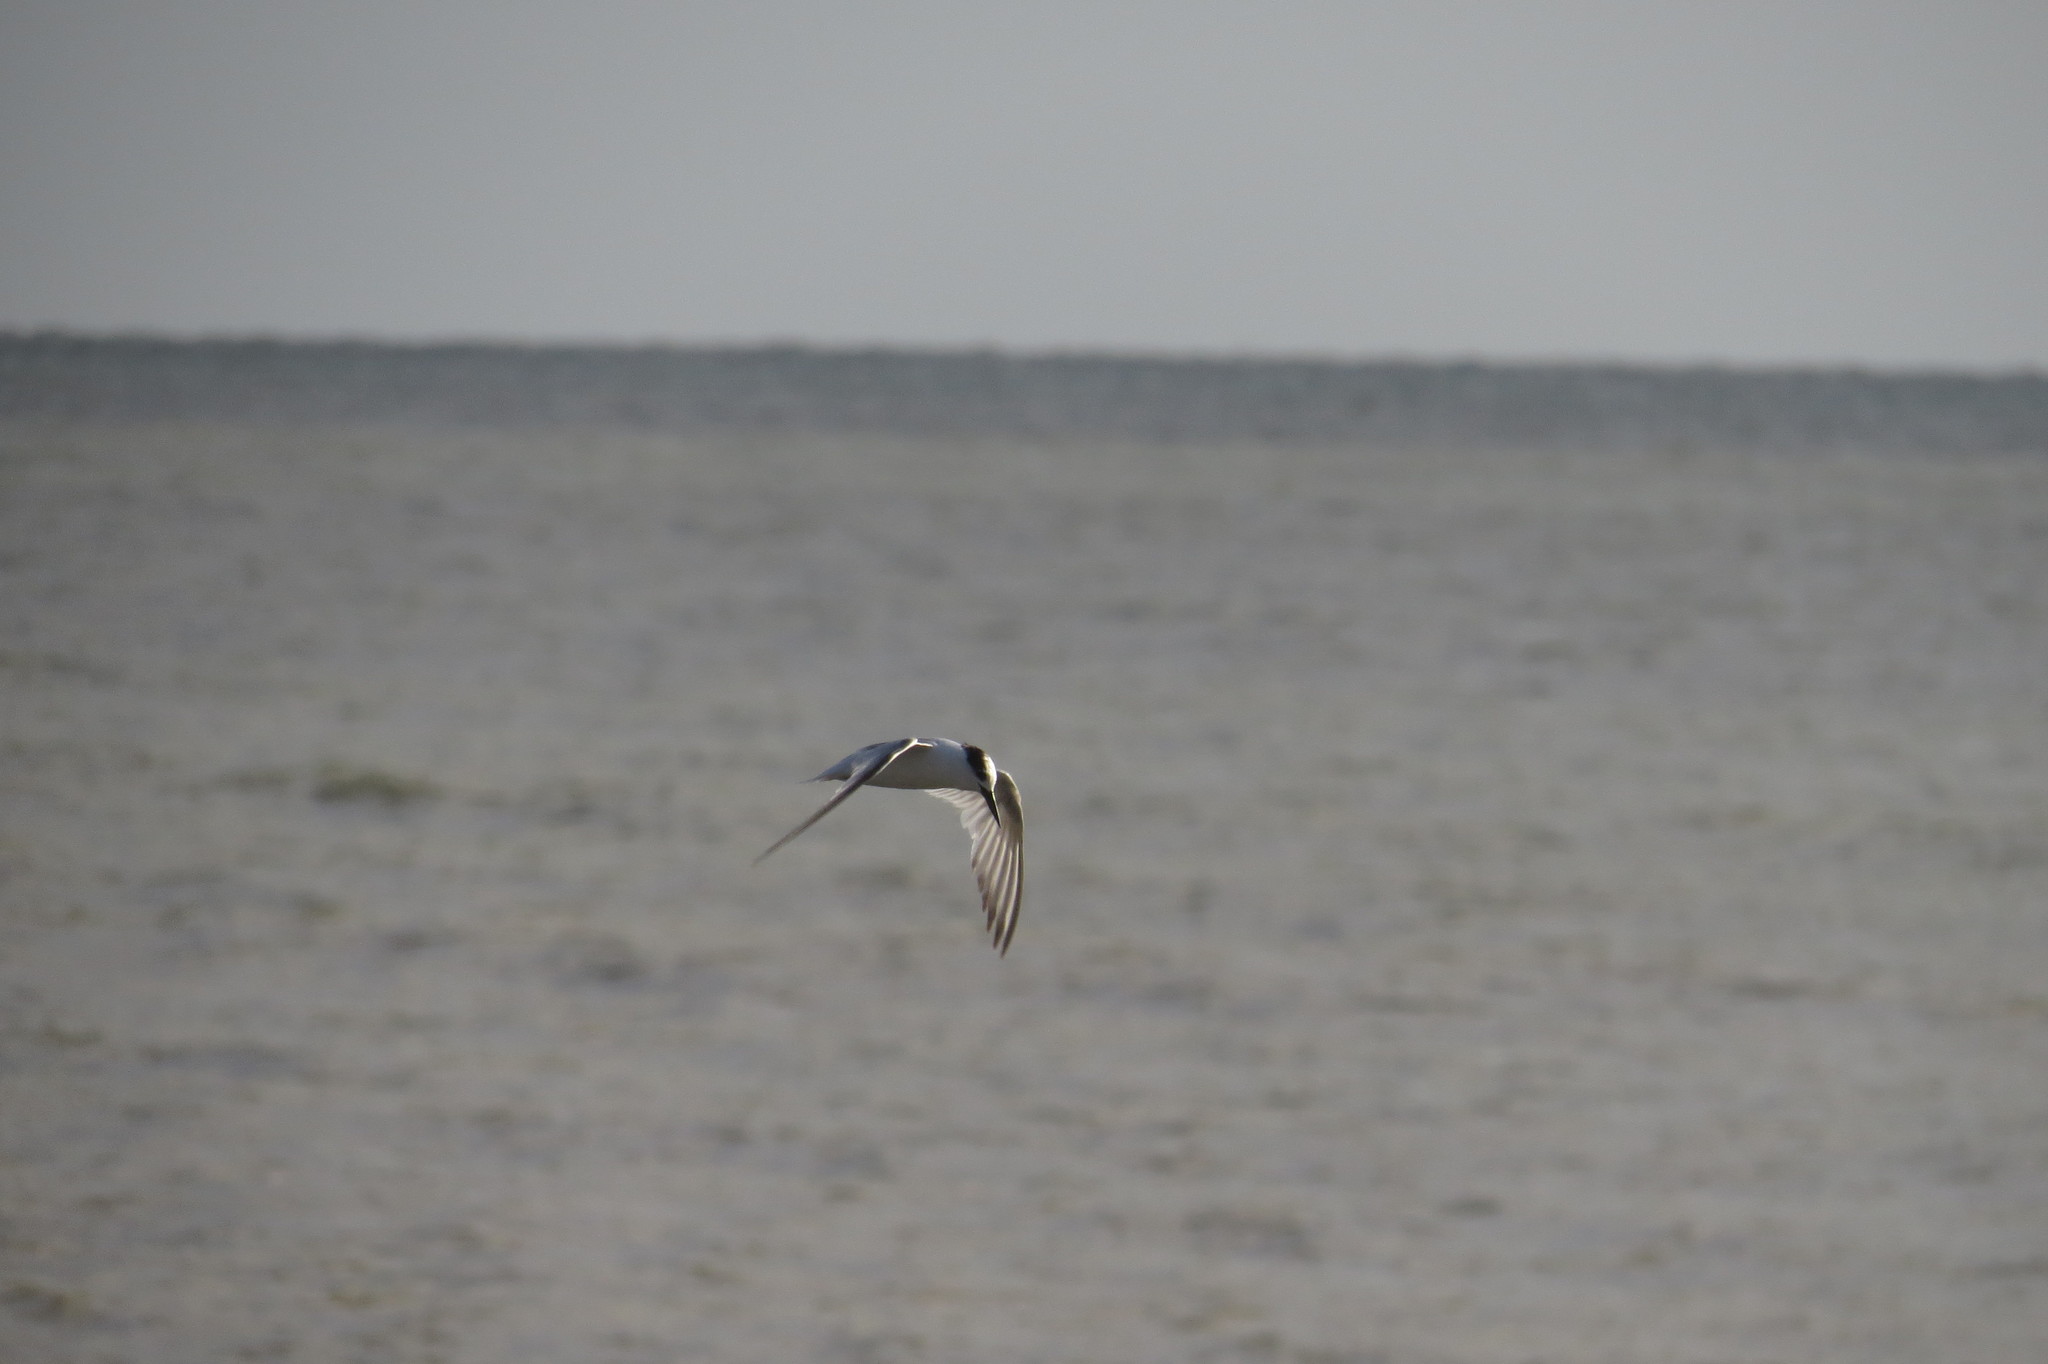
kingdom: Animalia
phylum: Chordata
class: Aves
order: Charadriiformes
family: Laridae
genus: Sternula
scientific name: Sternula albifrons
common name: Little tern
